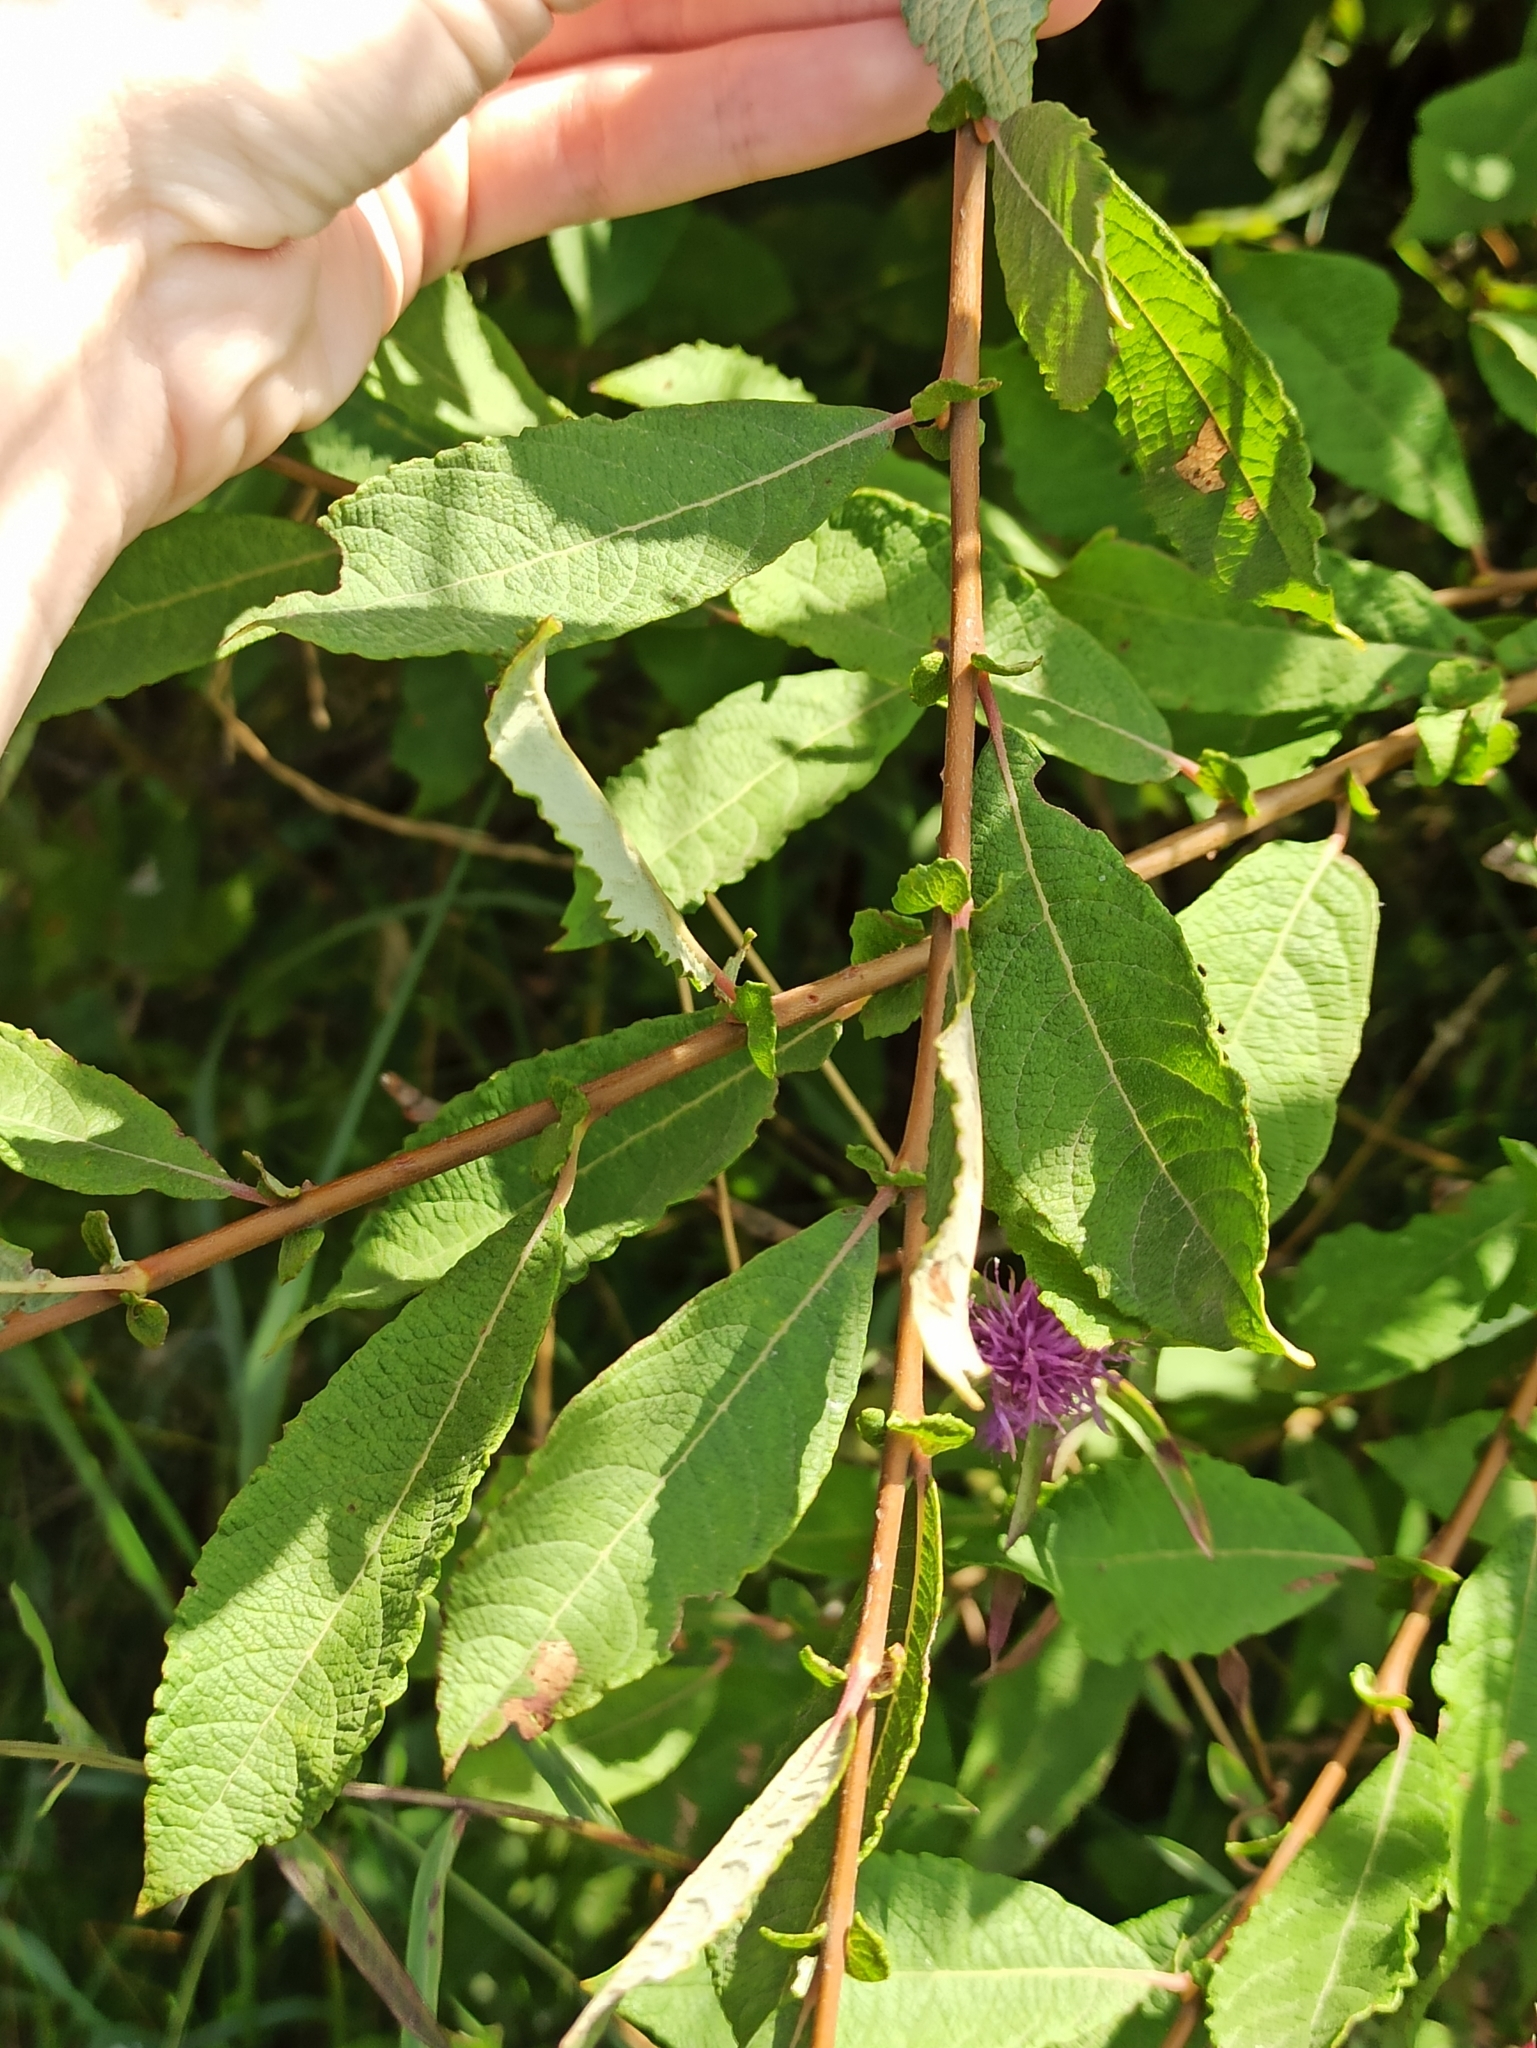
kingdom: Plantae
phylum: Tracheophyta
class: Magnoliopsida
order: Malpighiales
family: Salicaceae
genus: Salix
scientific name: Salix cinerea
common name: Common sallow
